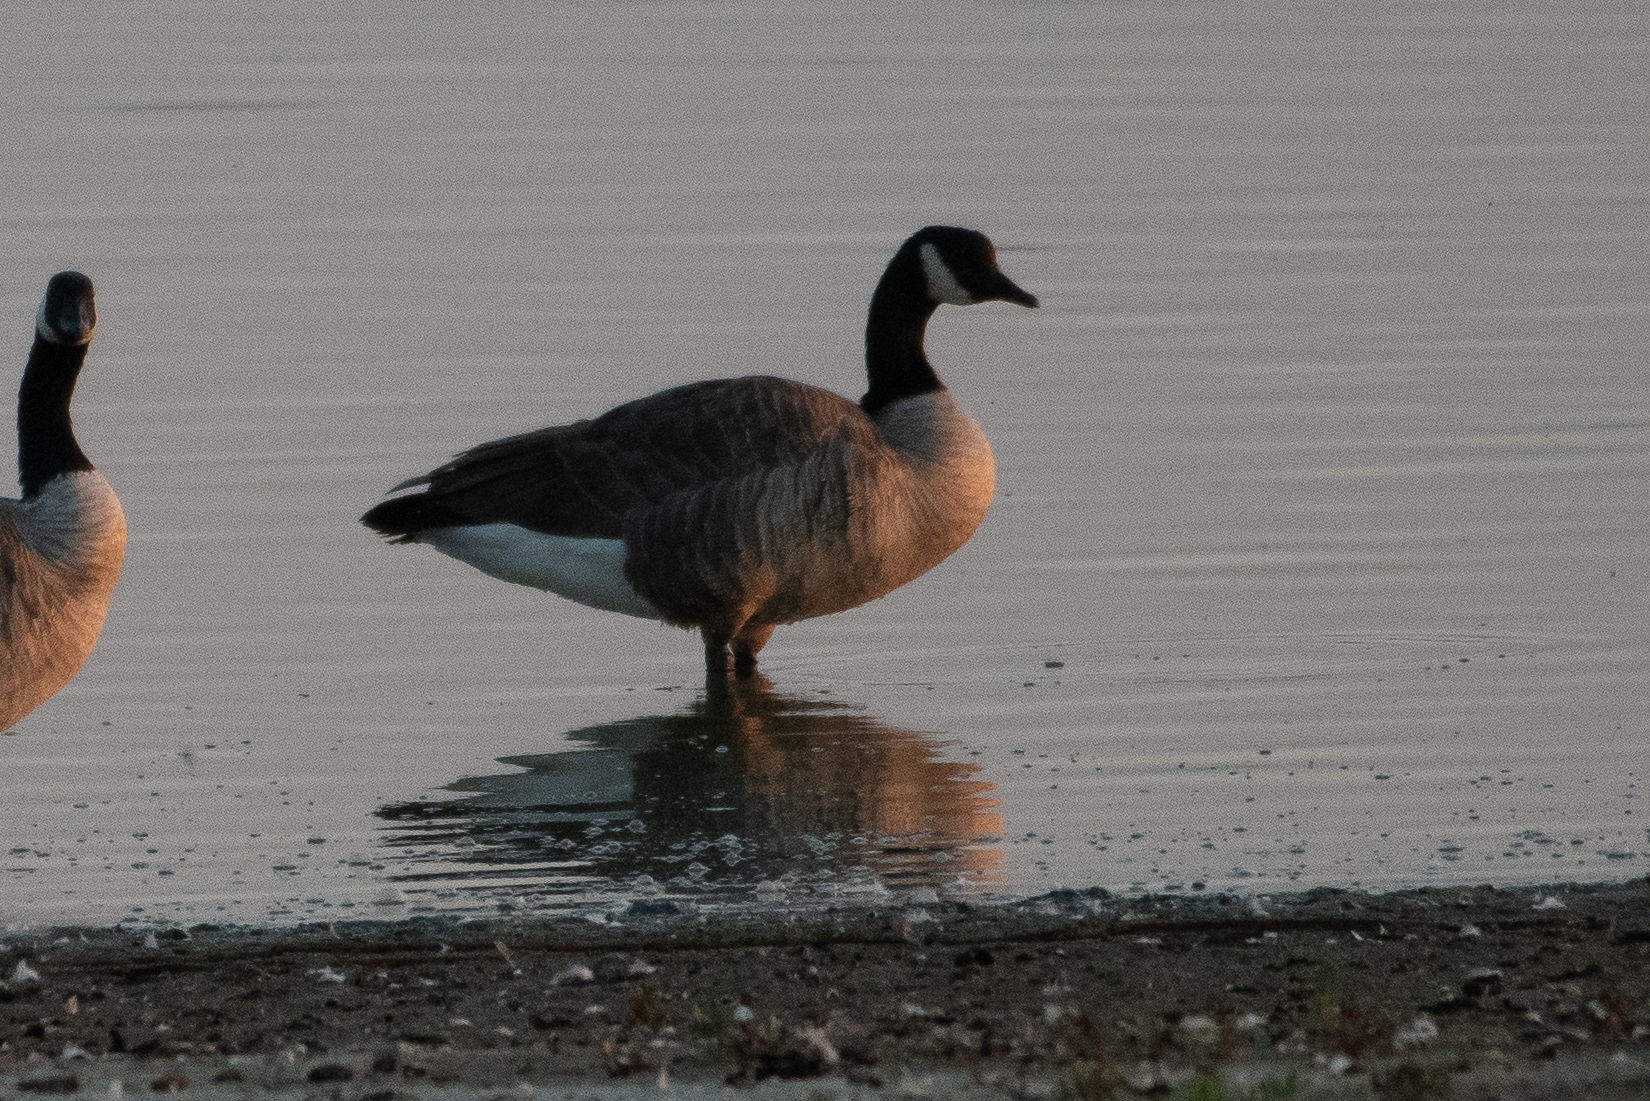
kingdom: Animalia
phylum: Chordata
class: Aves
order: Anseriformes
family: Anatidae
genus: Branta
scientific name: Branta canadensis
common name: Canada goose
